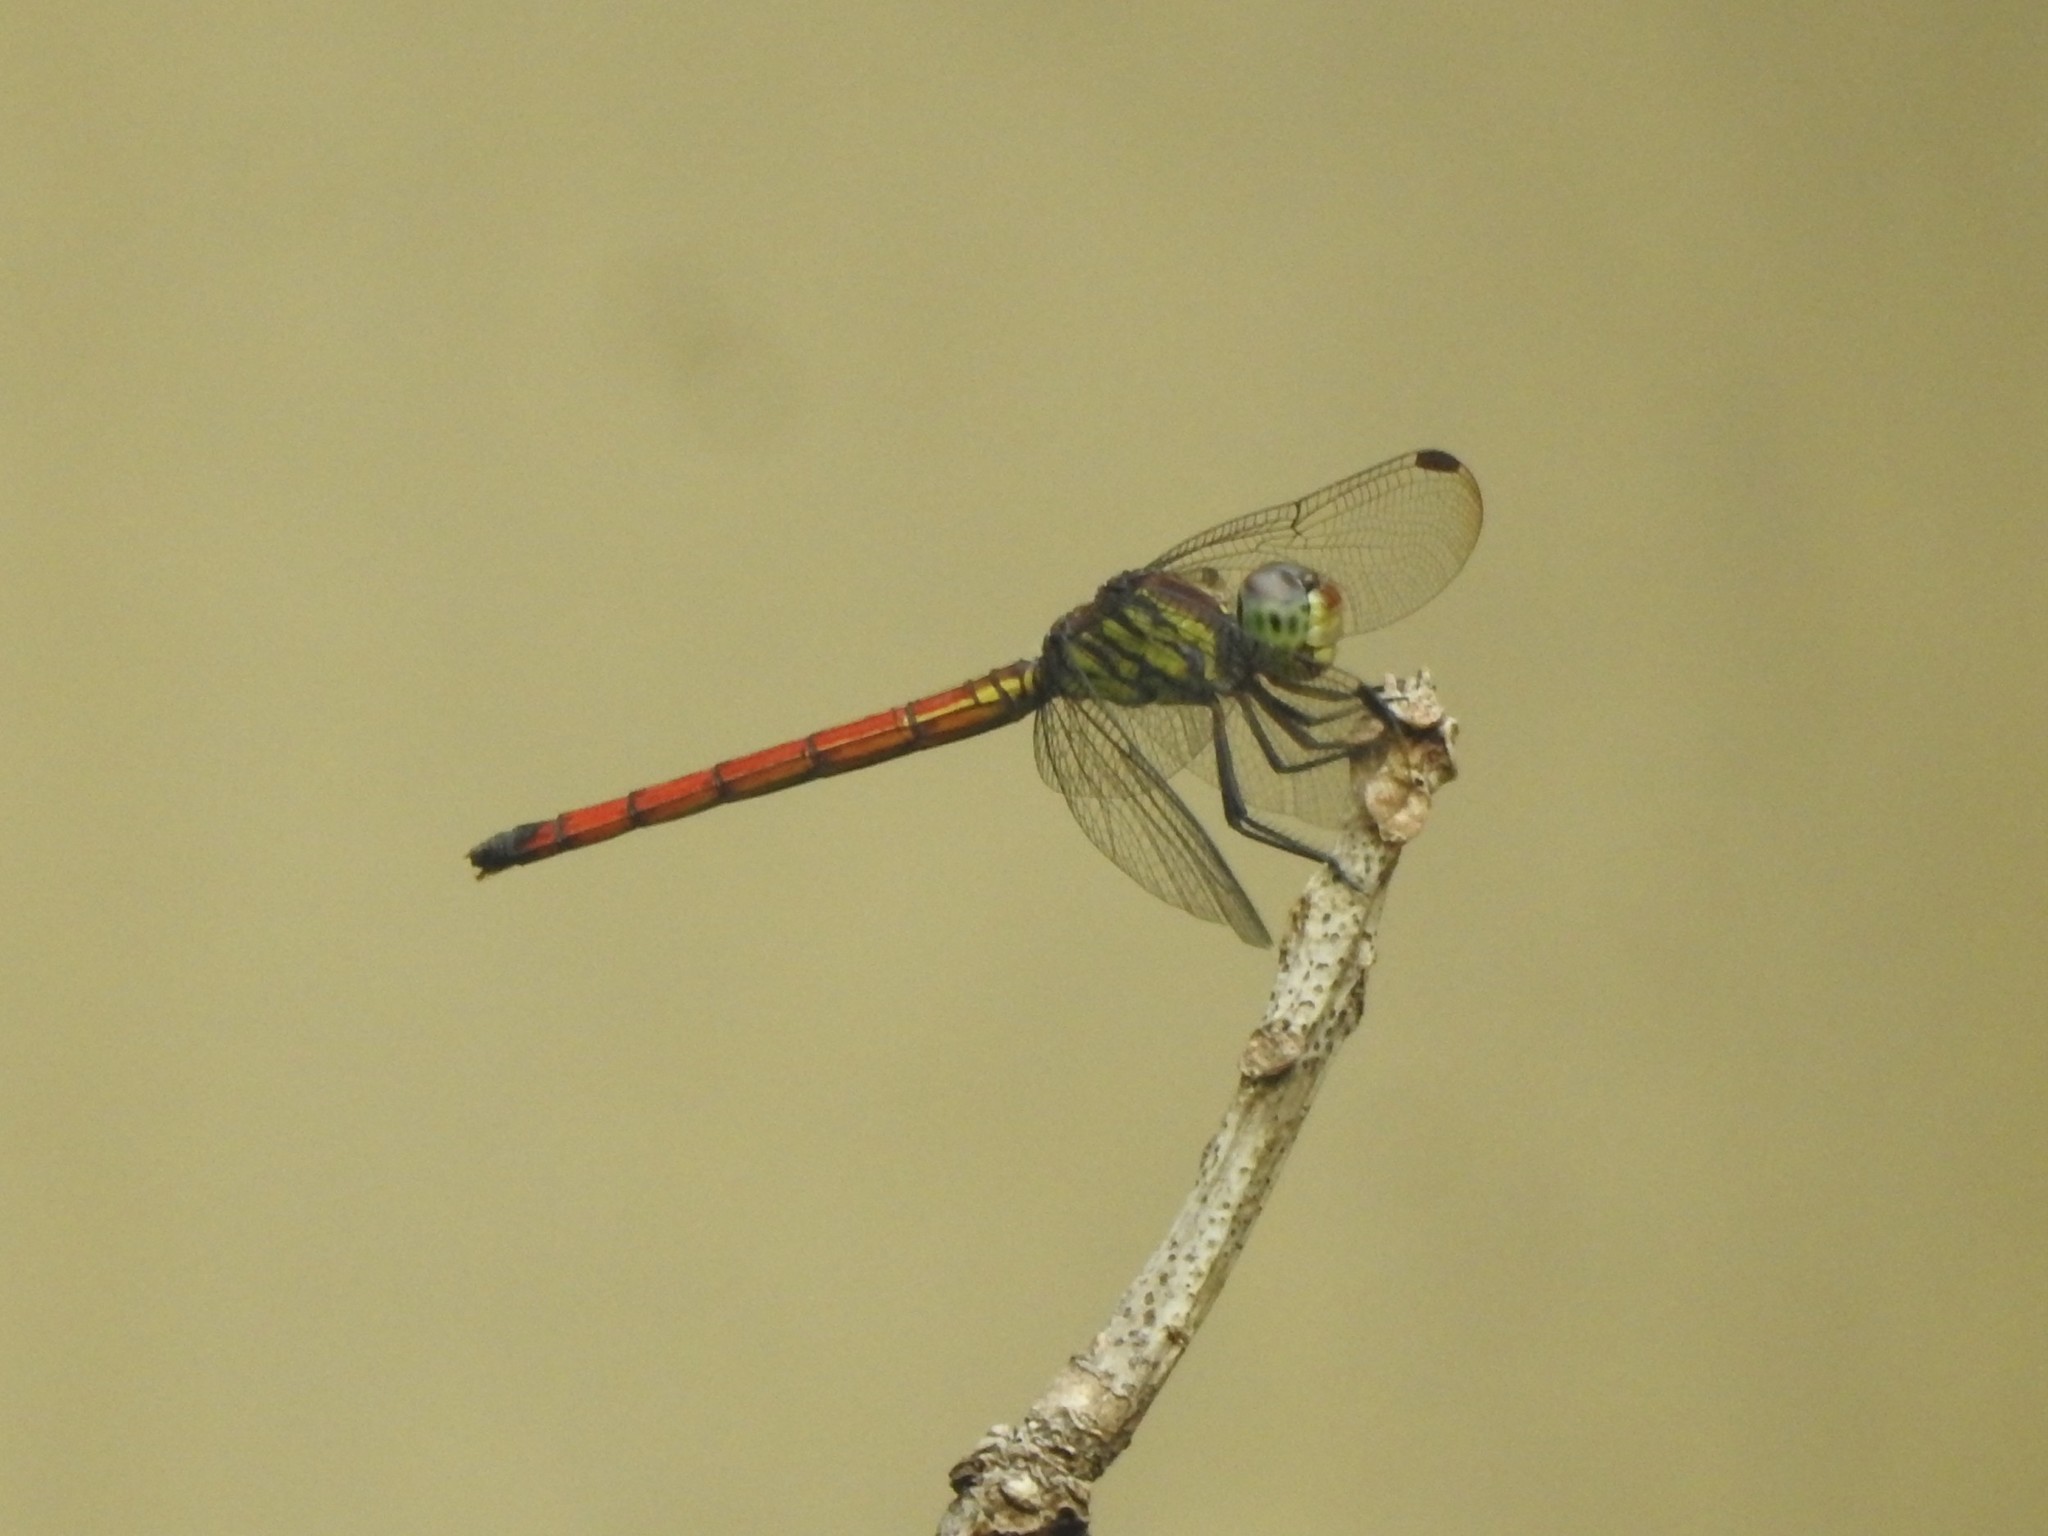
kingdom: Animalia
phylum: Arthropoda
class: Insecta
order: Odonata
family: Libellulidae
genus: Lathrecista
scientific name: Lathrecista asiatica
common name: Scarlet grenadier
